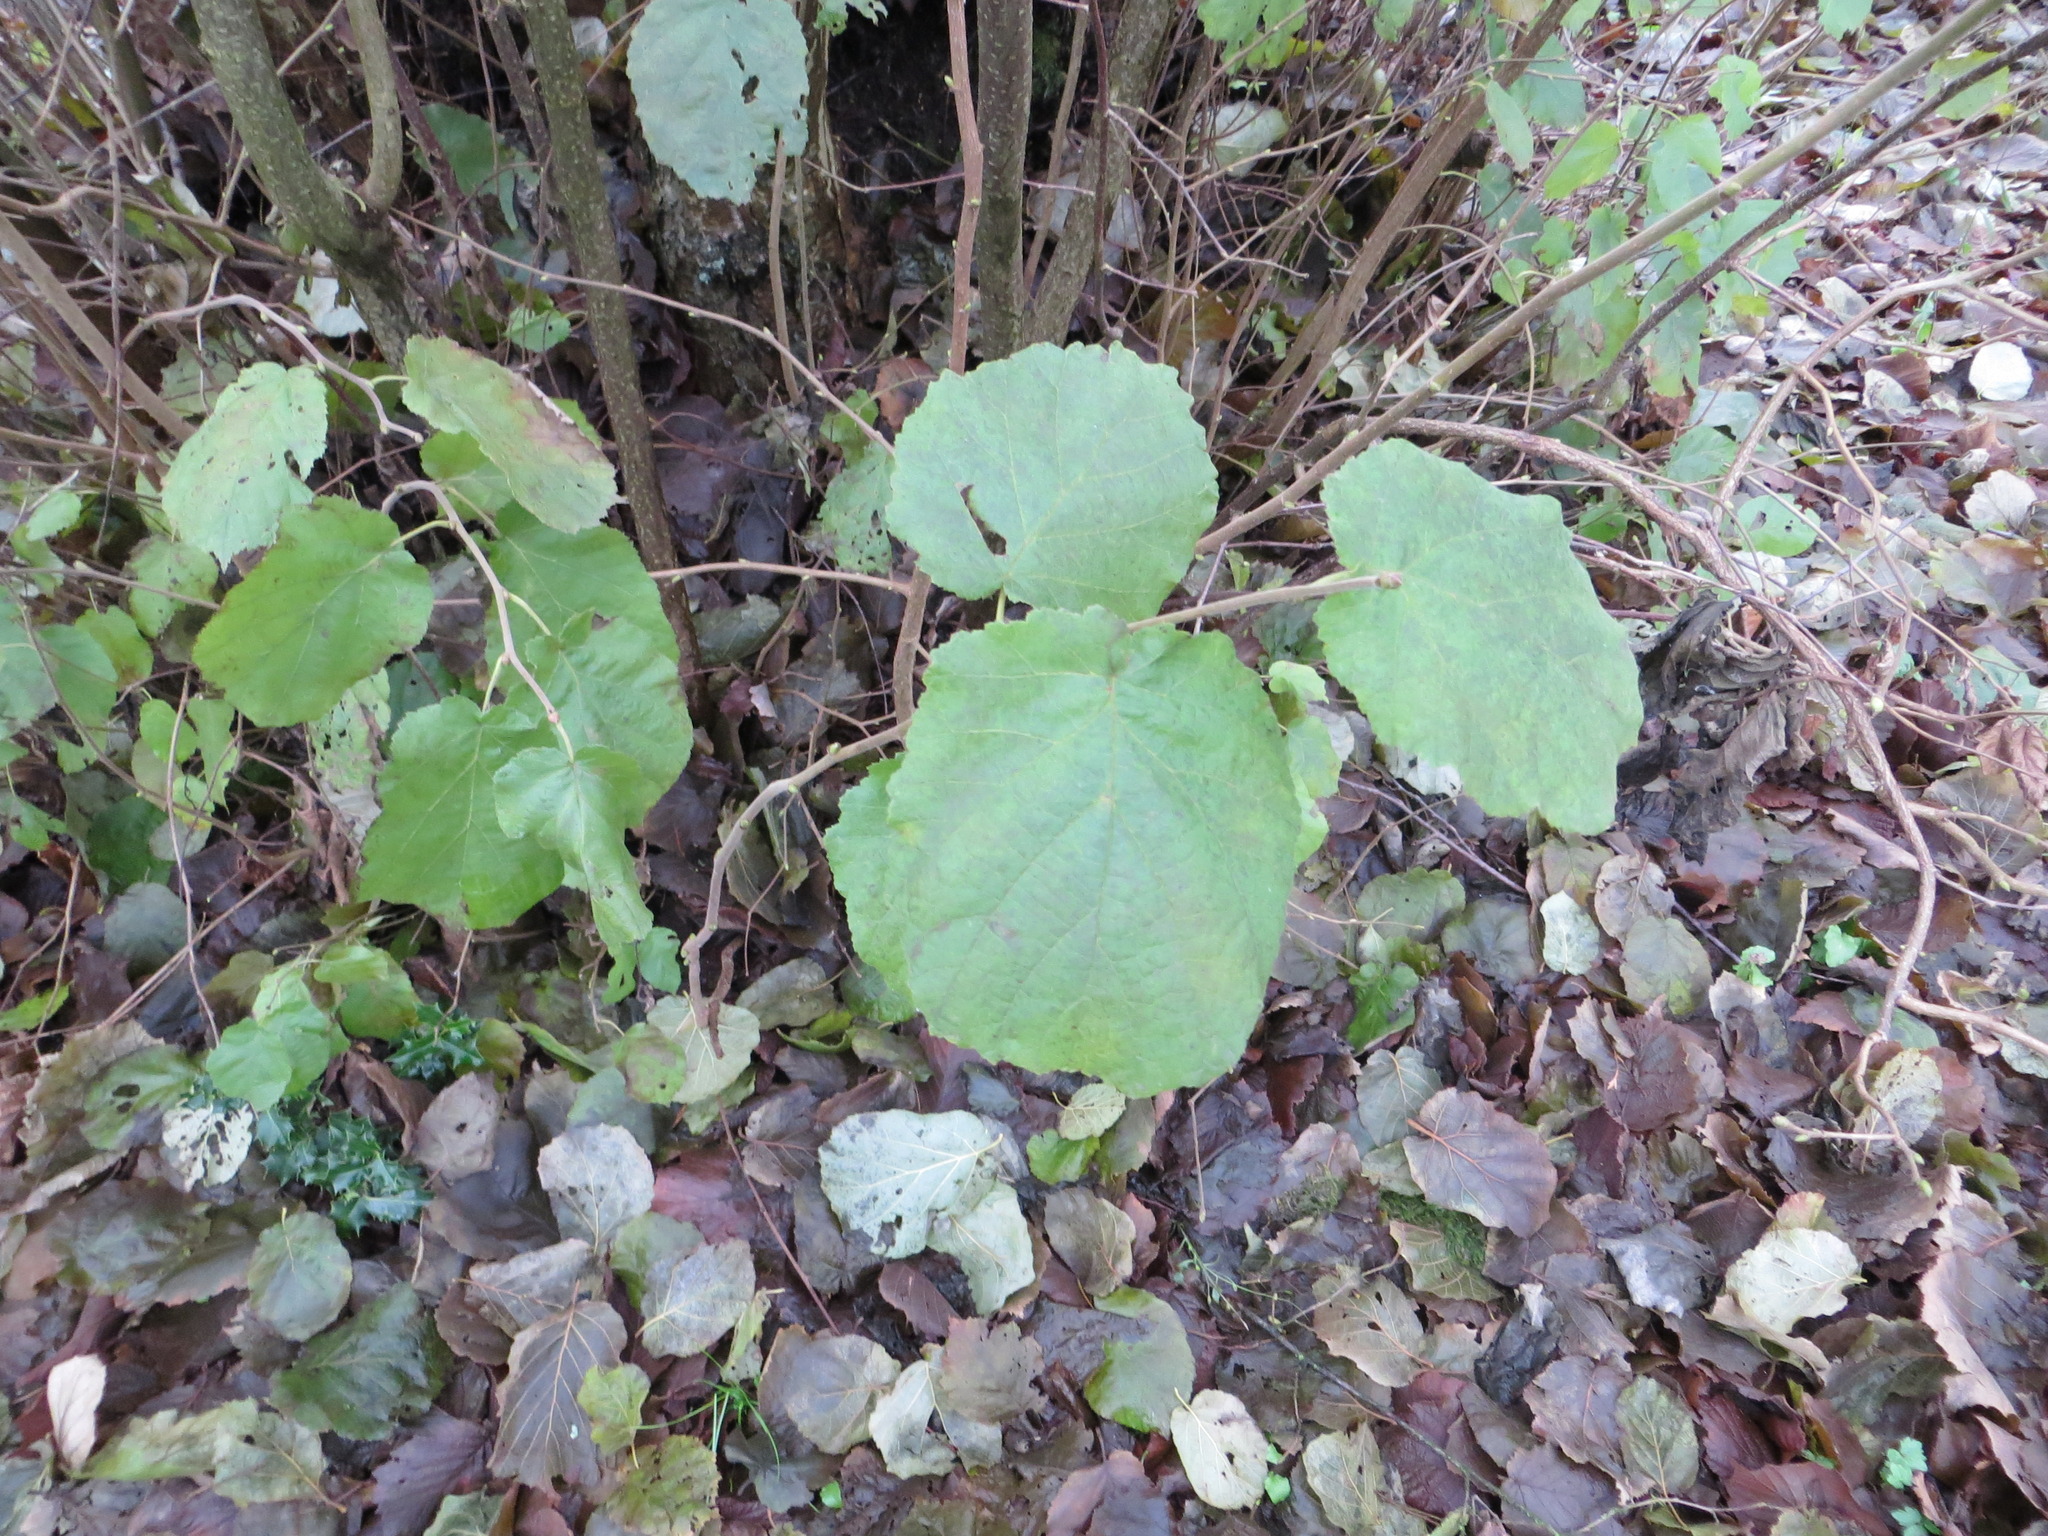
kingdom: Plantae
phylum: Tracheophyta
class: Magnoliopsida
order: Fagales
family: Betulaceae
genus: Corylus
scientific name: Corylus cornuta
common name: Beaked hazel
